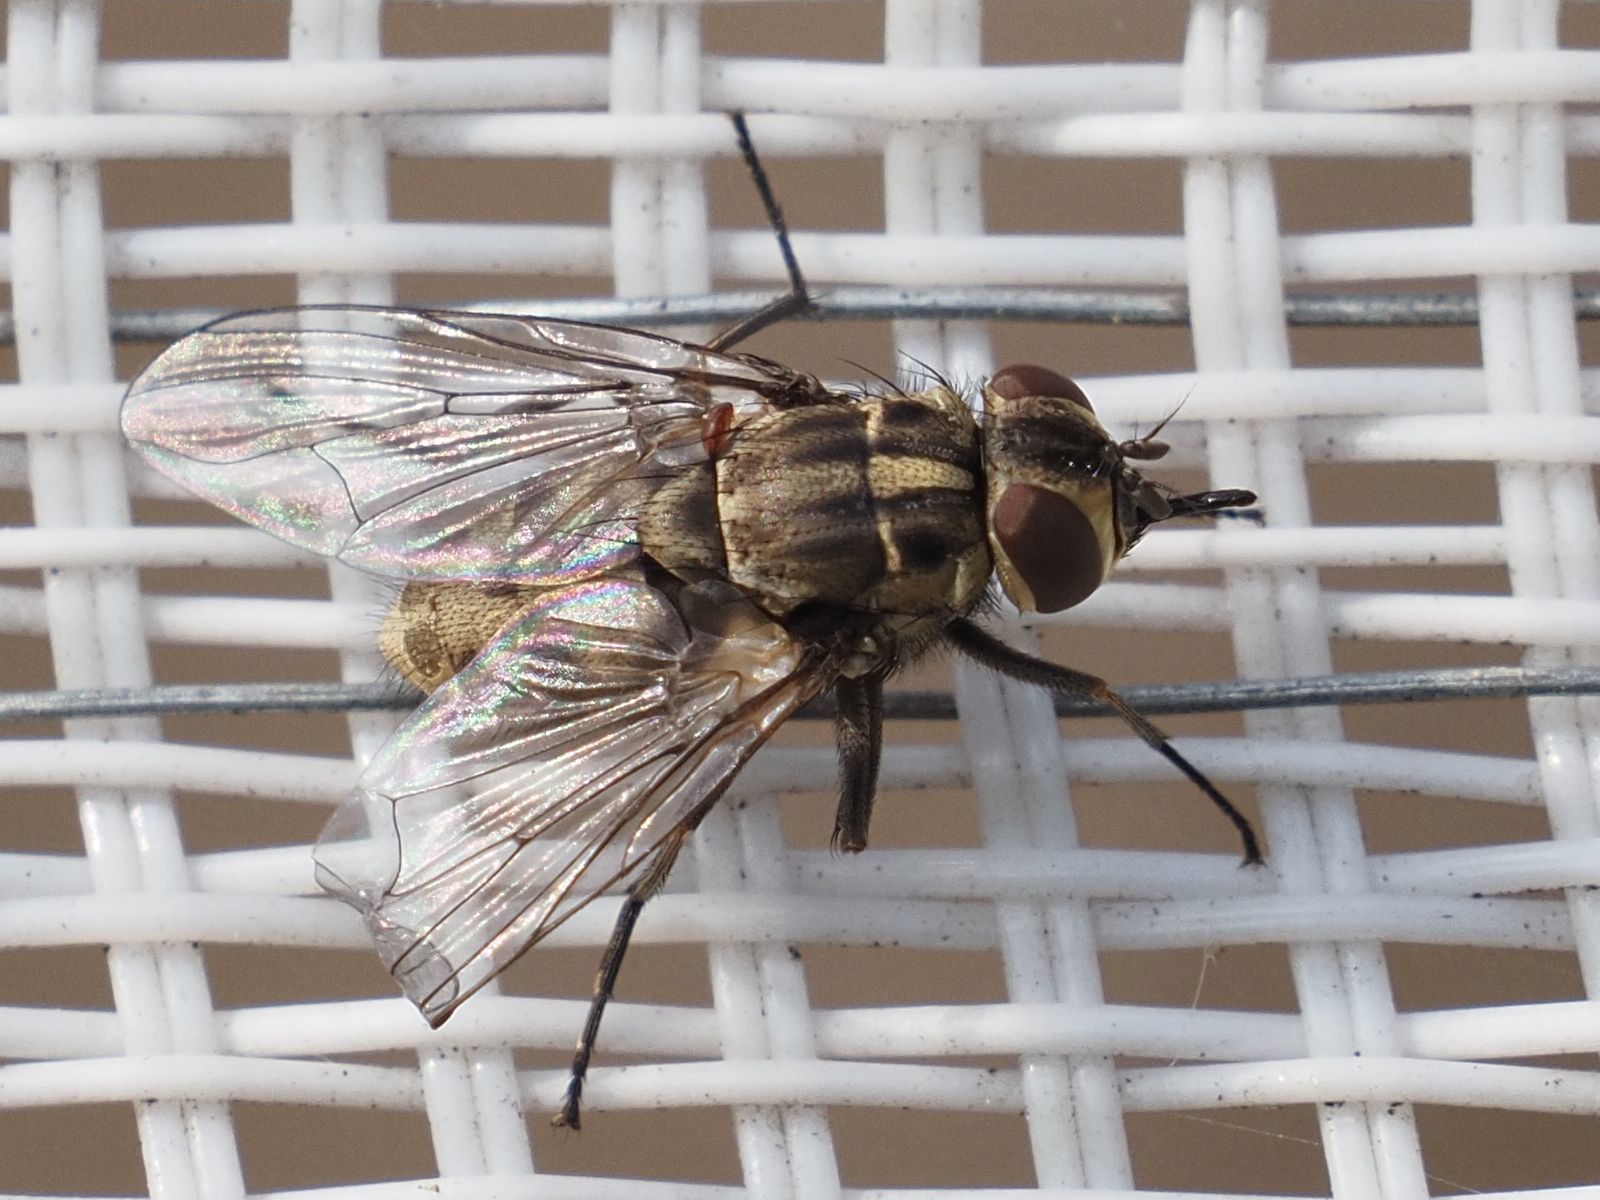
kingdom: Animalia
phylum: Arthropoda
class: Insecta
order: Diptera
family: Muscidae
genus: Stomoxys
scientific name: Stomoxys calcitrans
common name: Stable fly
